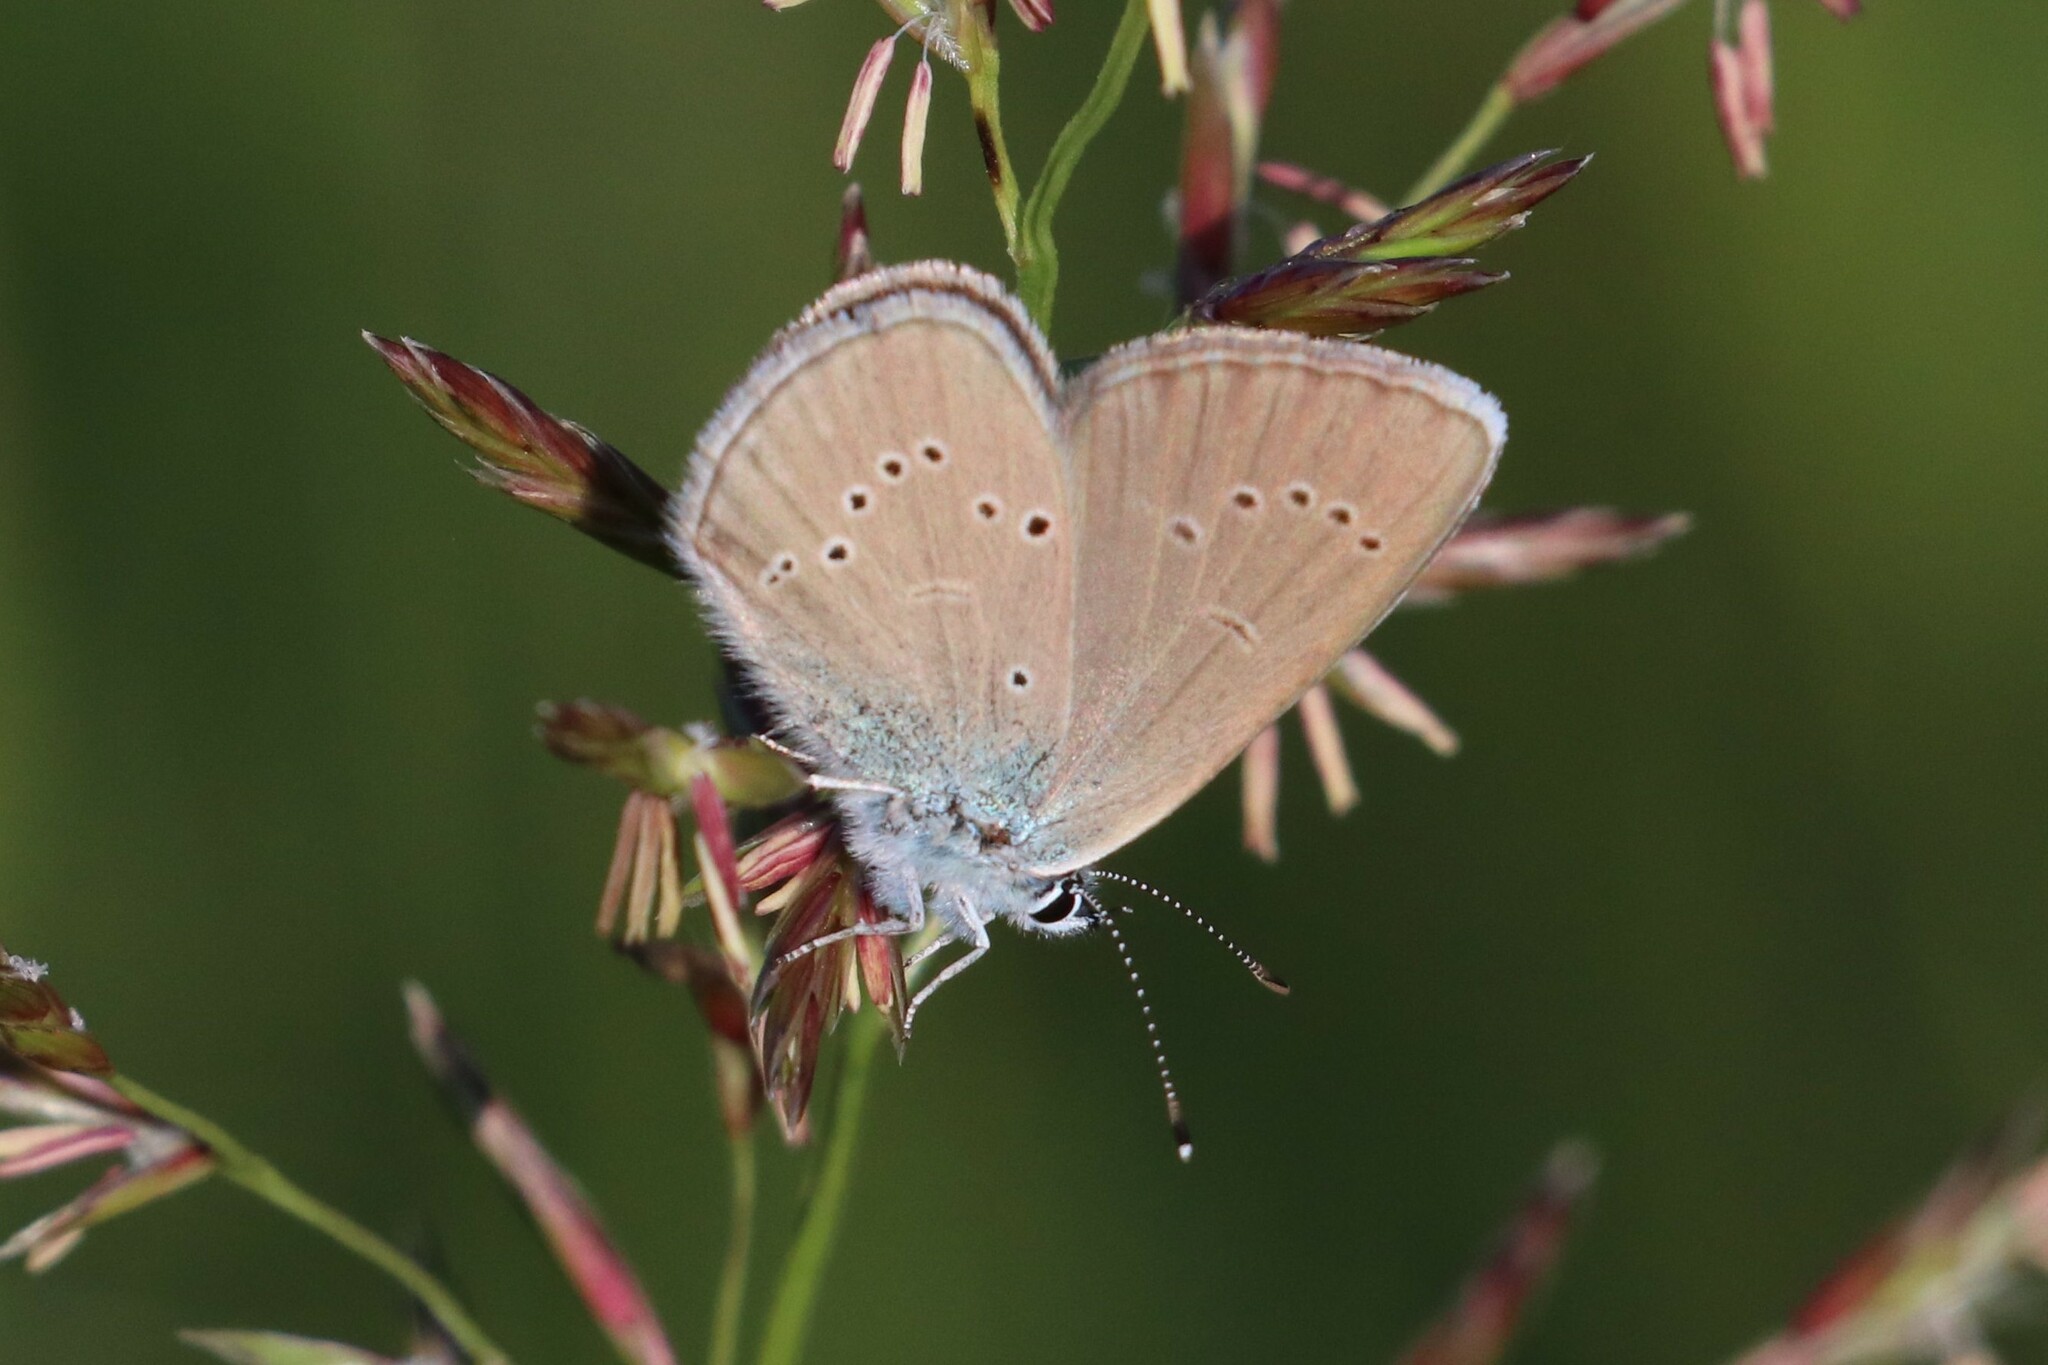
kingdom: Animalia
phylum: Arthropoda
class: Insecta
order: Lepidoptera
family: Lycaenidae
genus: Cyaniris
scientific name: Cyaniris semiargus
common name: Mazarine blue
